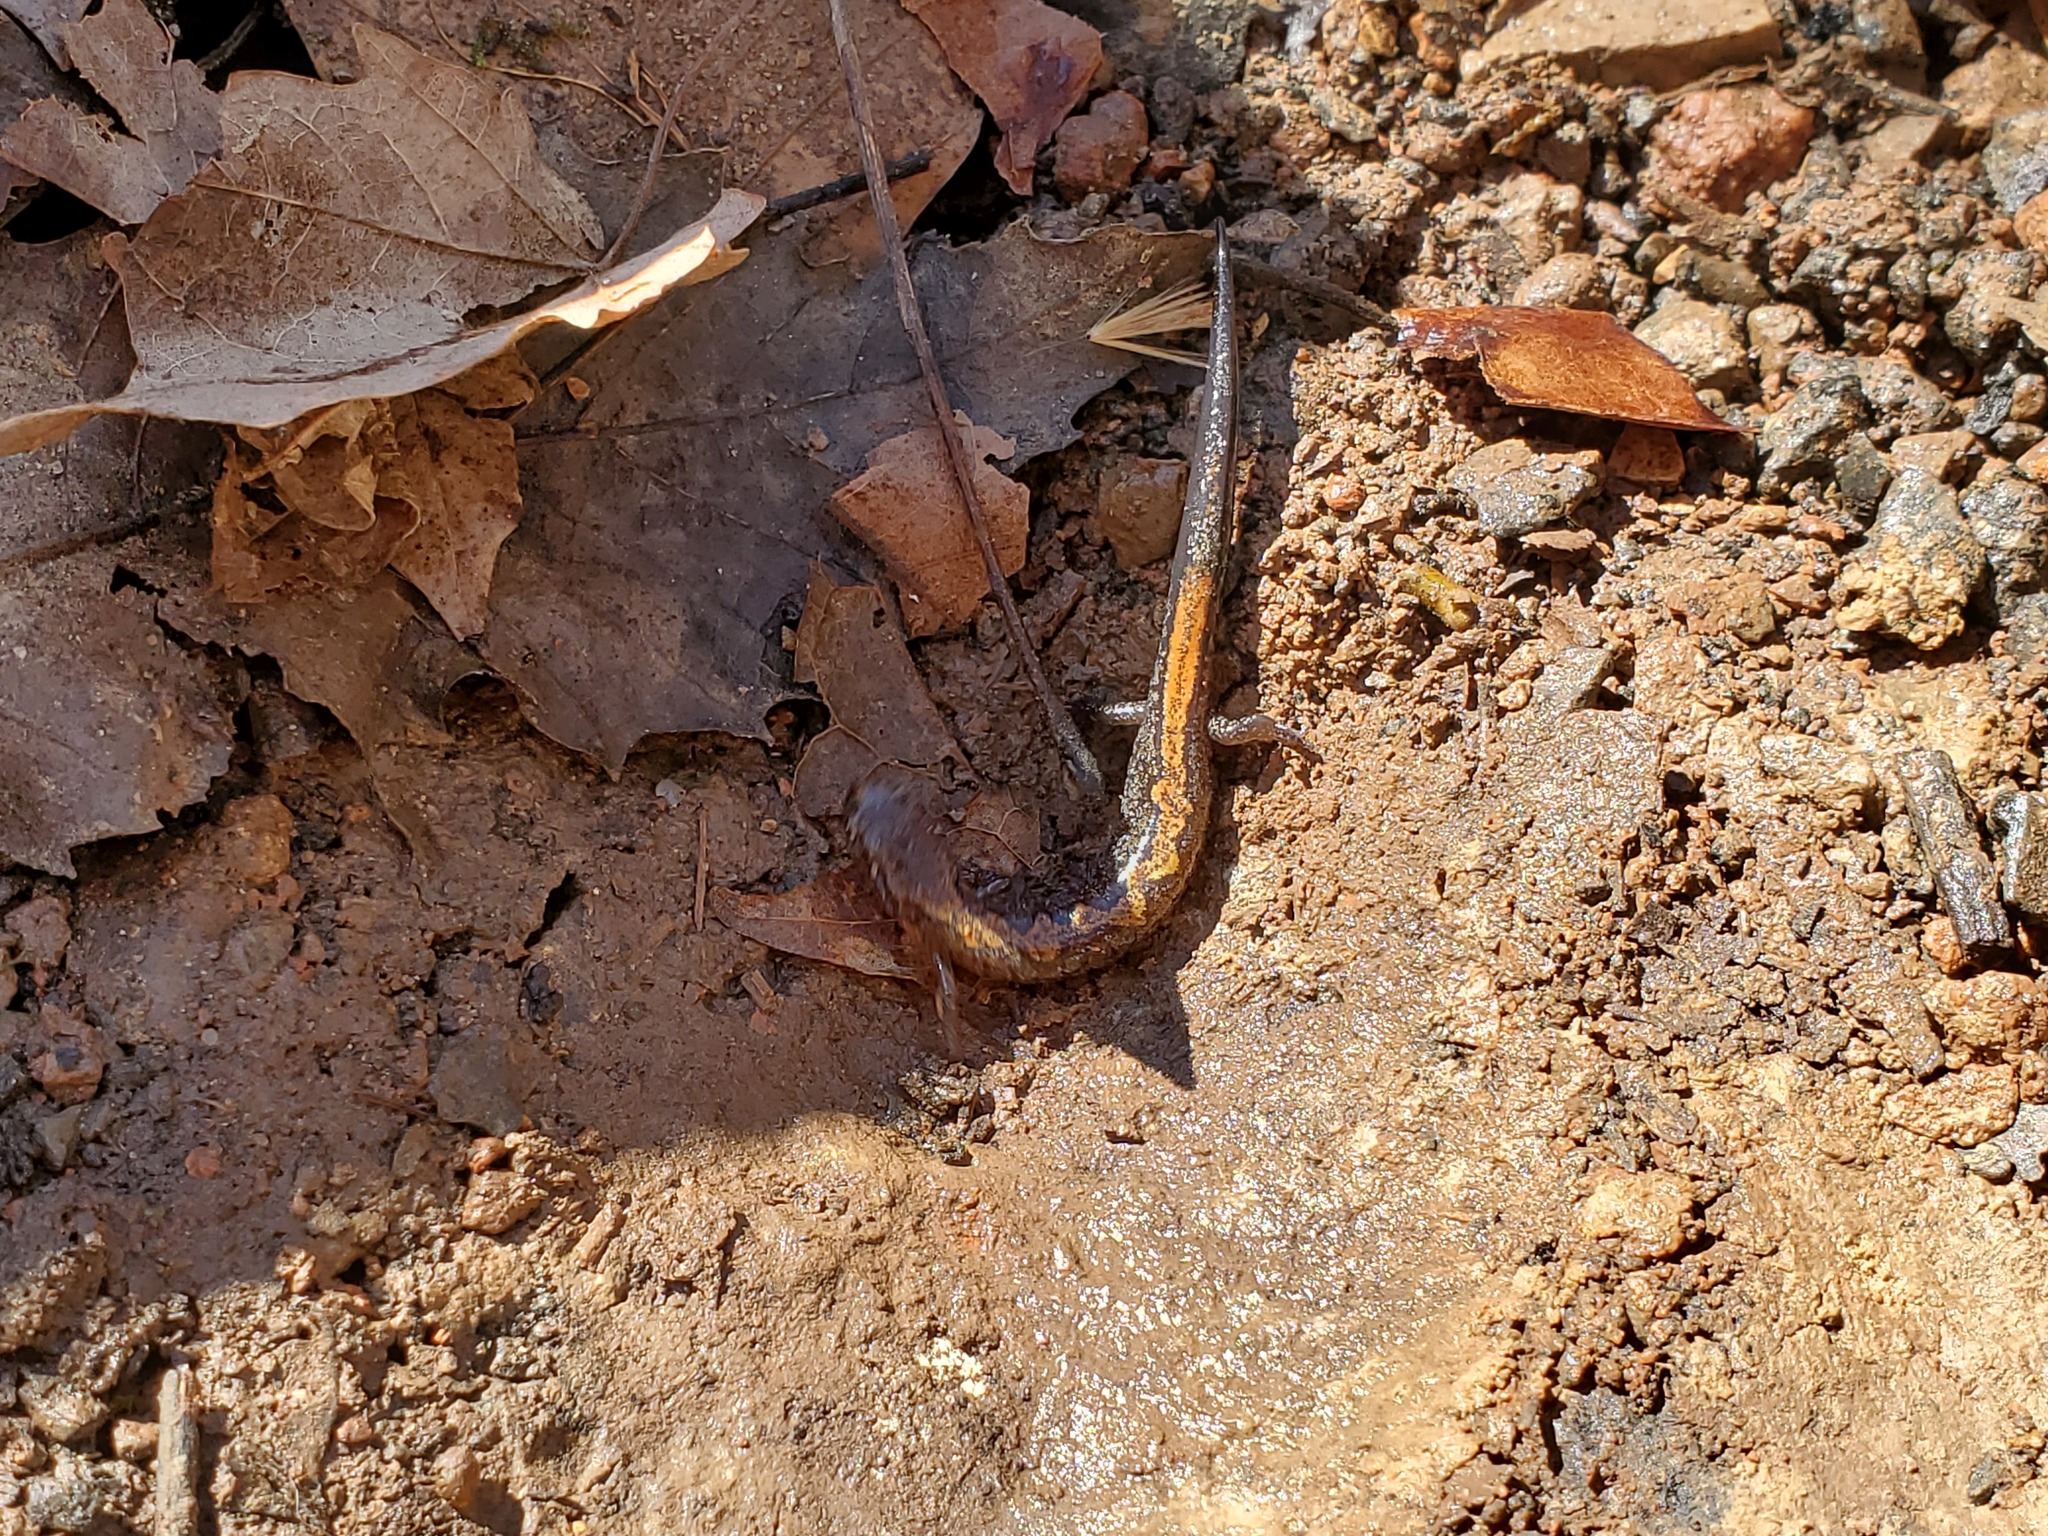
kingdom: Animalia
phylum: Chordata
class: Amphibia
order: Caudata
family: Plethodontidae
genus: Plethodon
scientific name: Plethodon dorsalis
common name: Northern zigzag salamander
